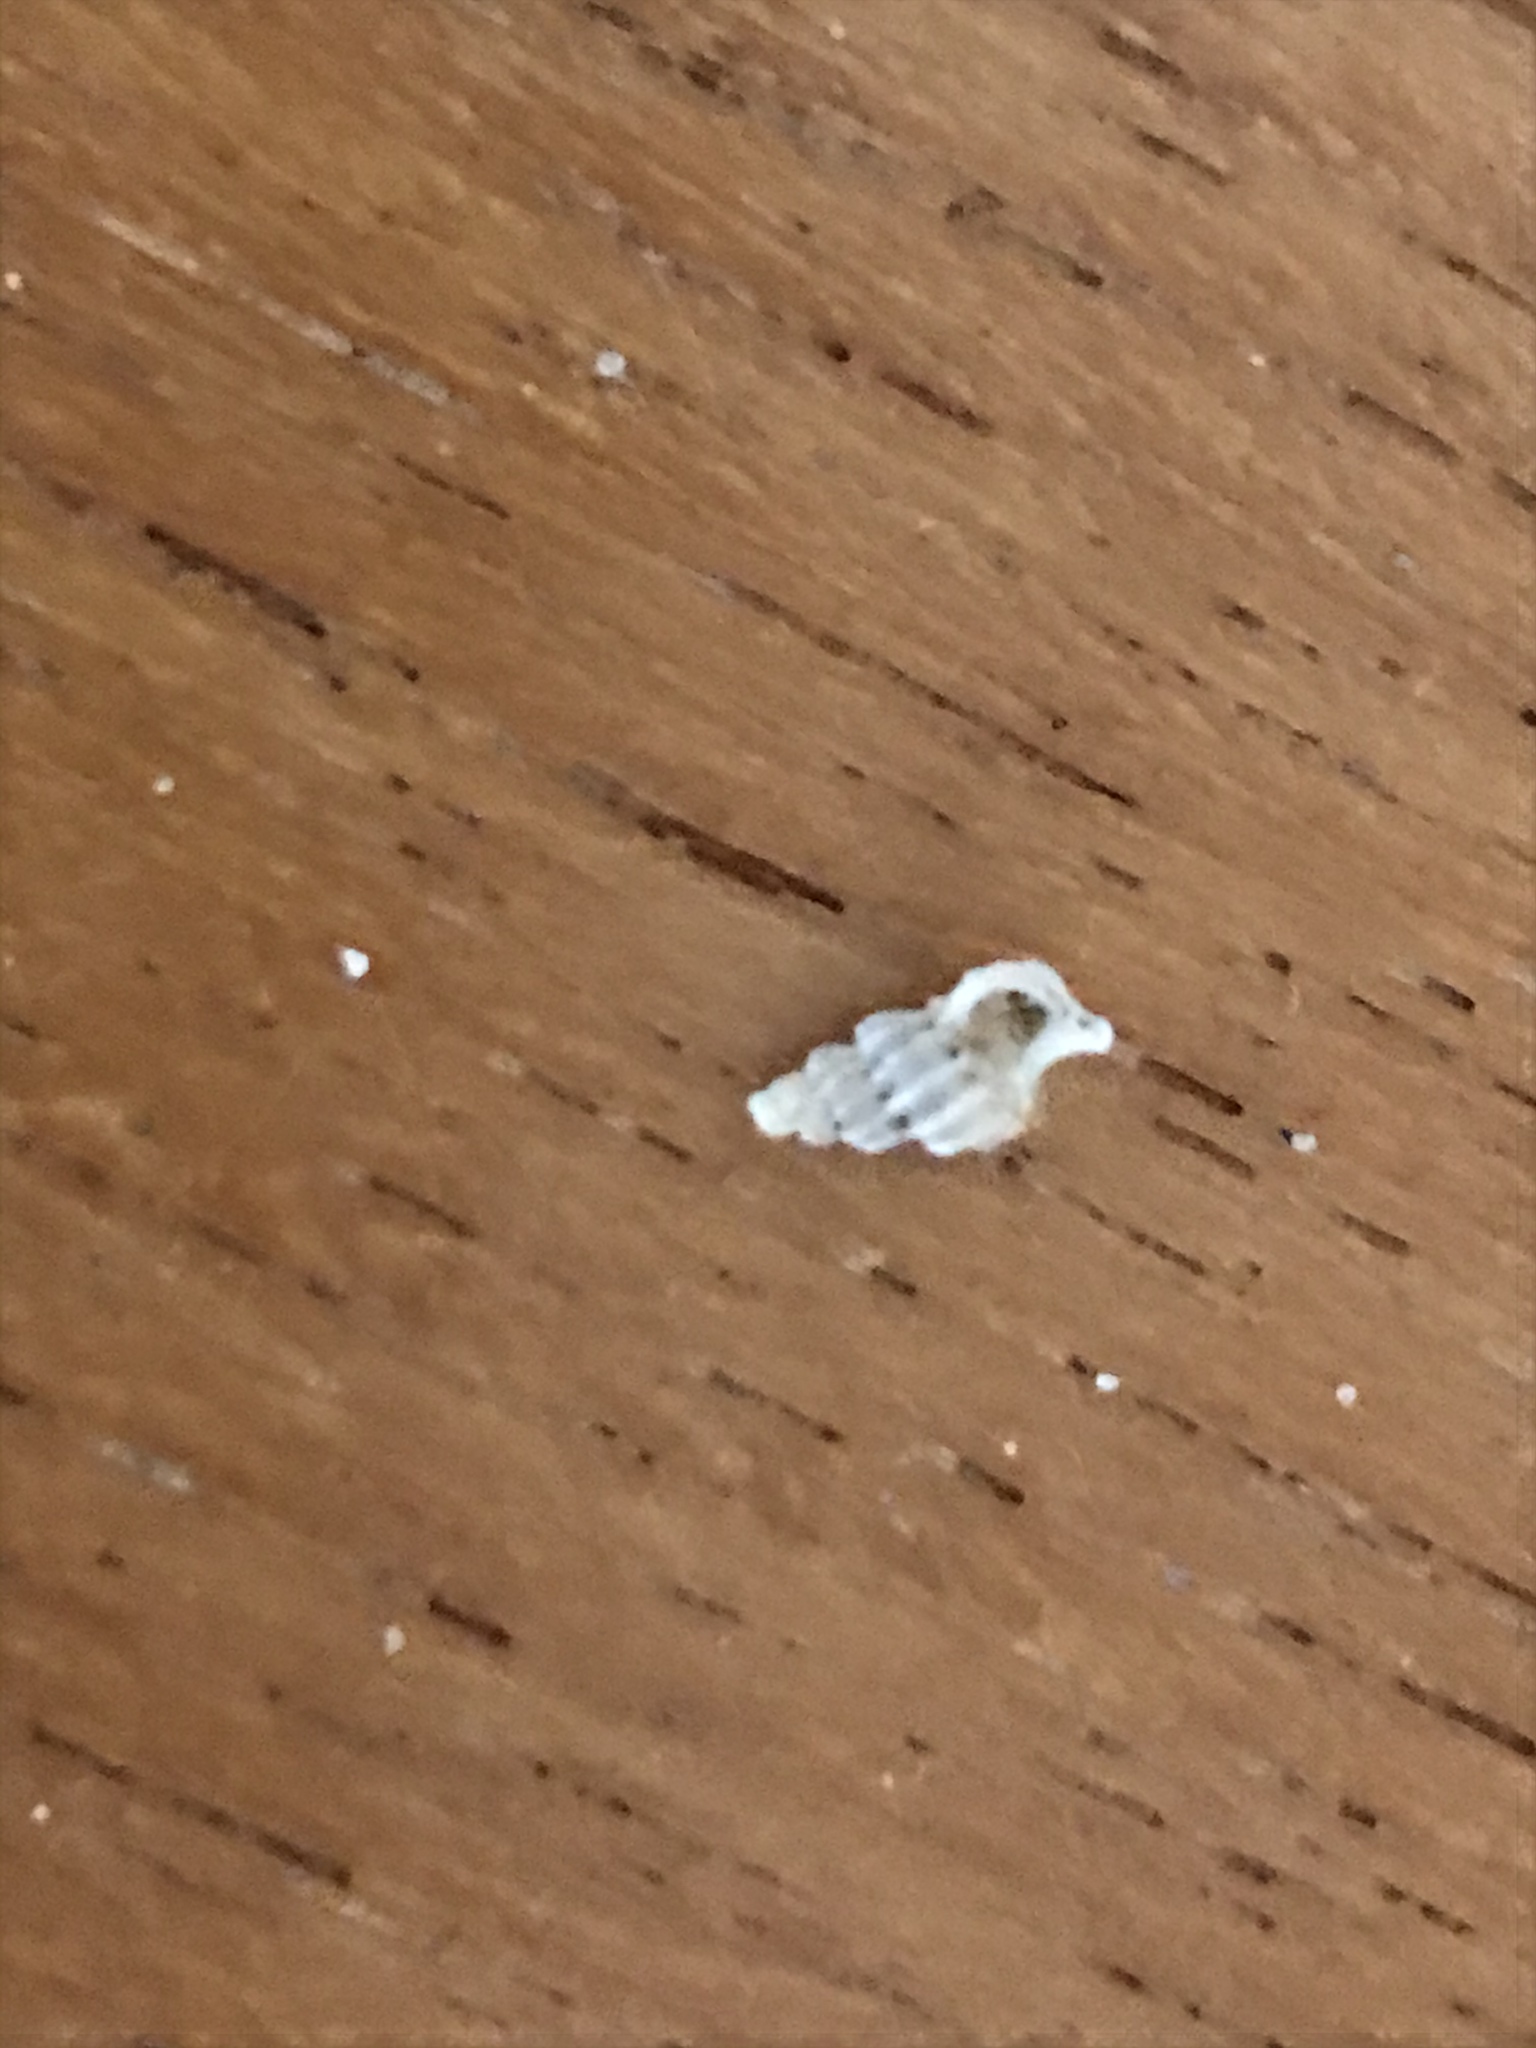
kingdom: Animalia
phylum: Mollusca
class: Gastropoda
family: Epitoniidae
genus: Epitonium
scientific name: Epitonium tinctum
